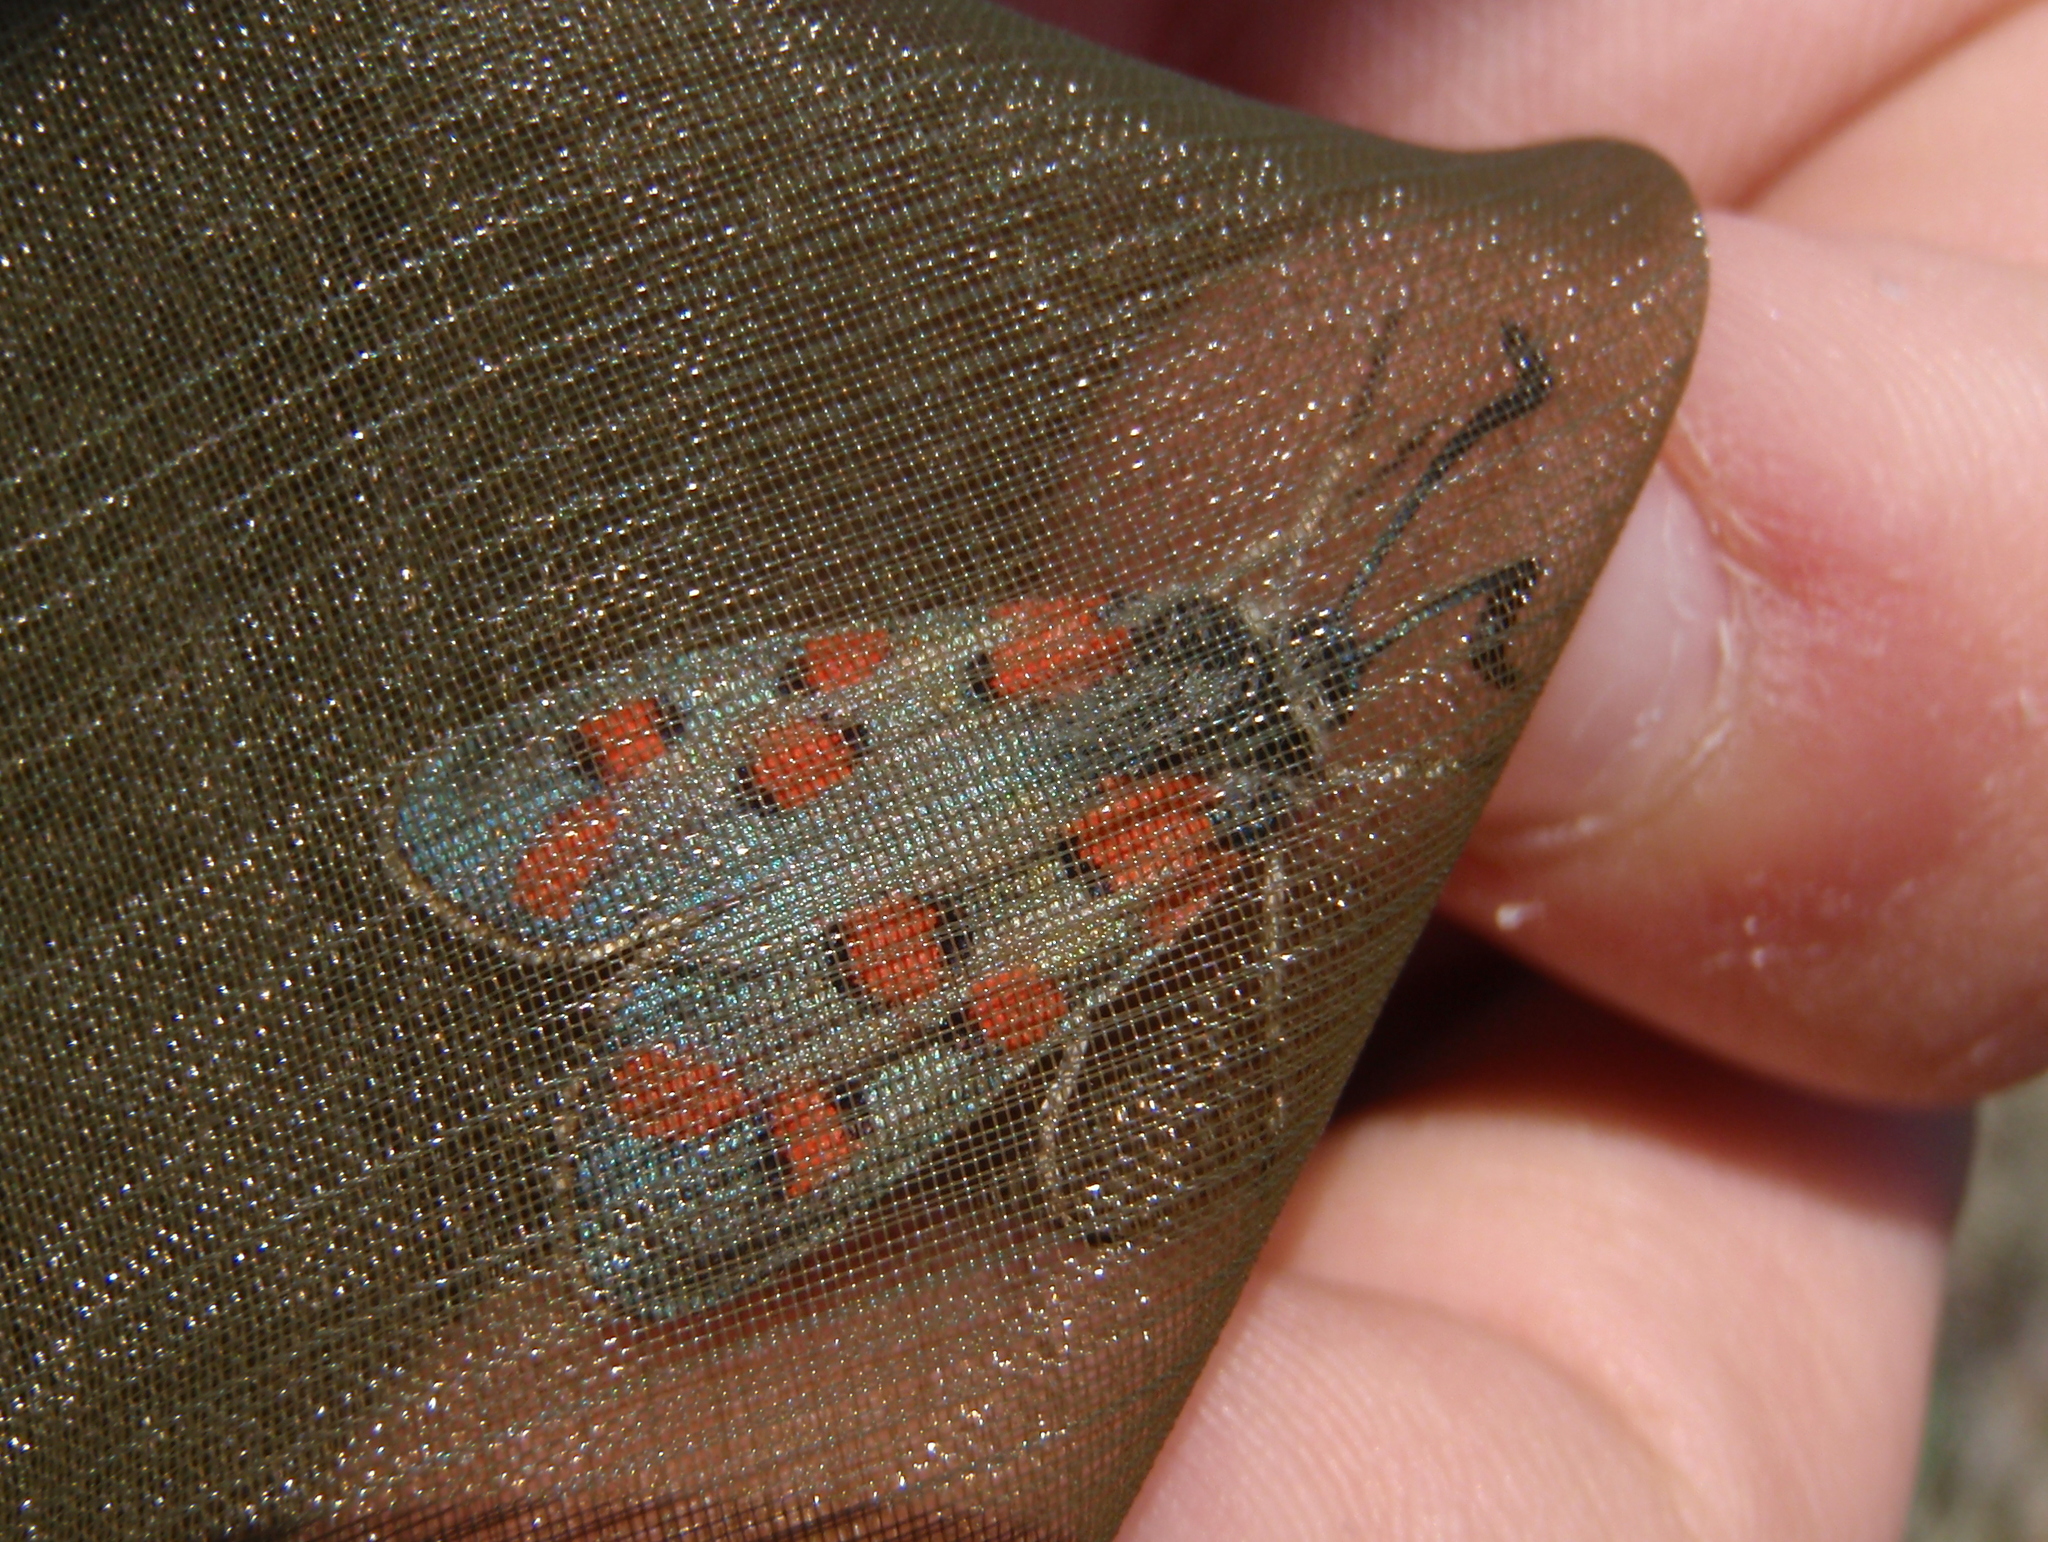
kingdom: Animalia
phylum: Arthropoda
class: Insecta
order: Lepidoptera
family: Zygaenidae
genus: Zygaena
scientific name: Zygaena rhadamanthus
